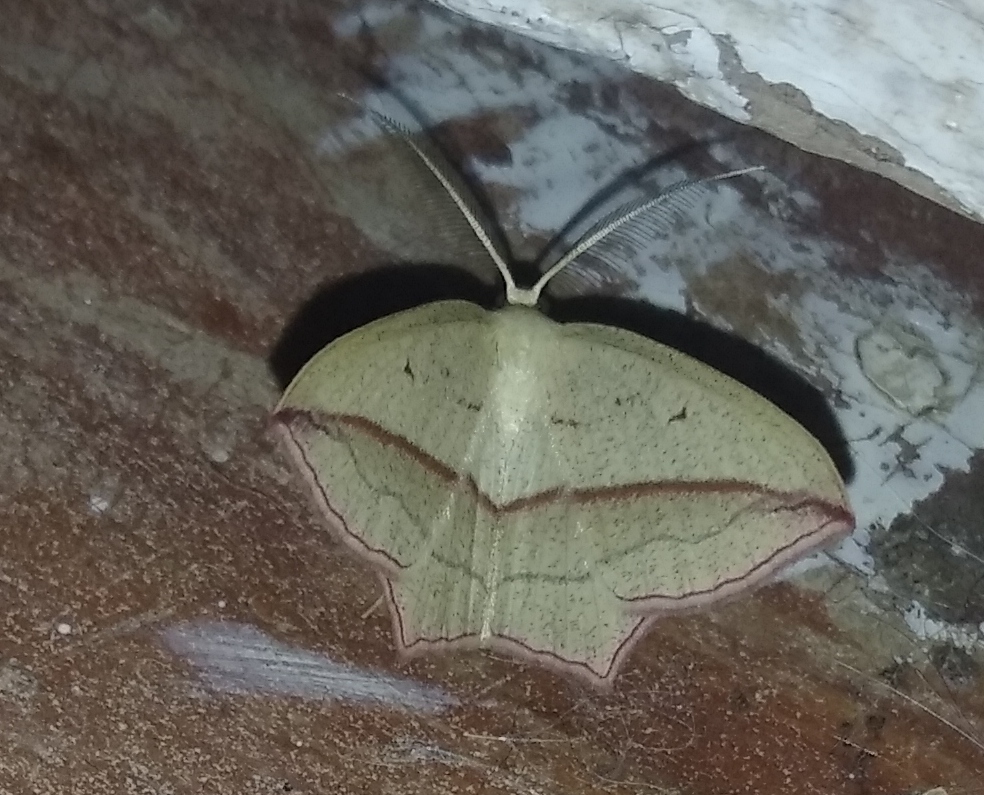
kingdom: Animalia
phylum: Arthropoda
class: Insecta
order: Lepidoptera
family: Geometridae
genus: Timandra
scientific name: Timandra comae
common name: Blood-vein
